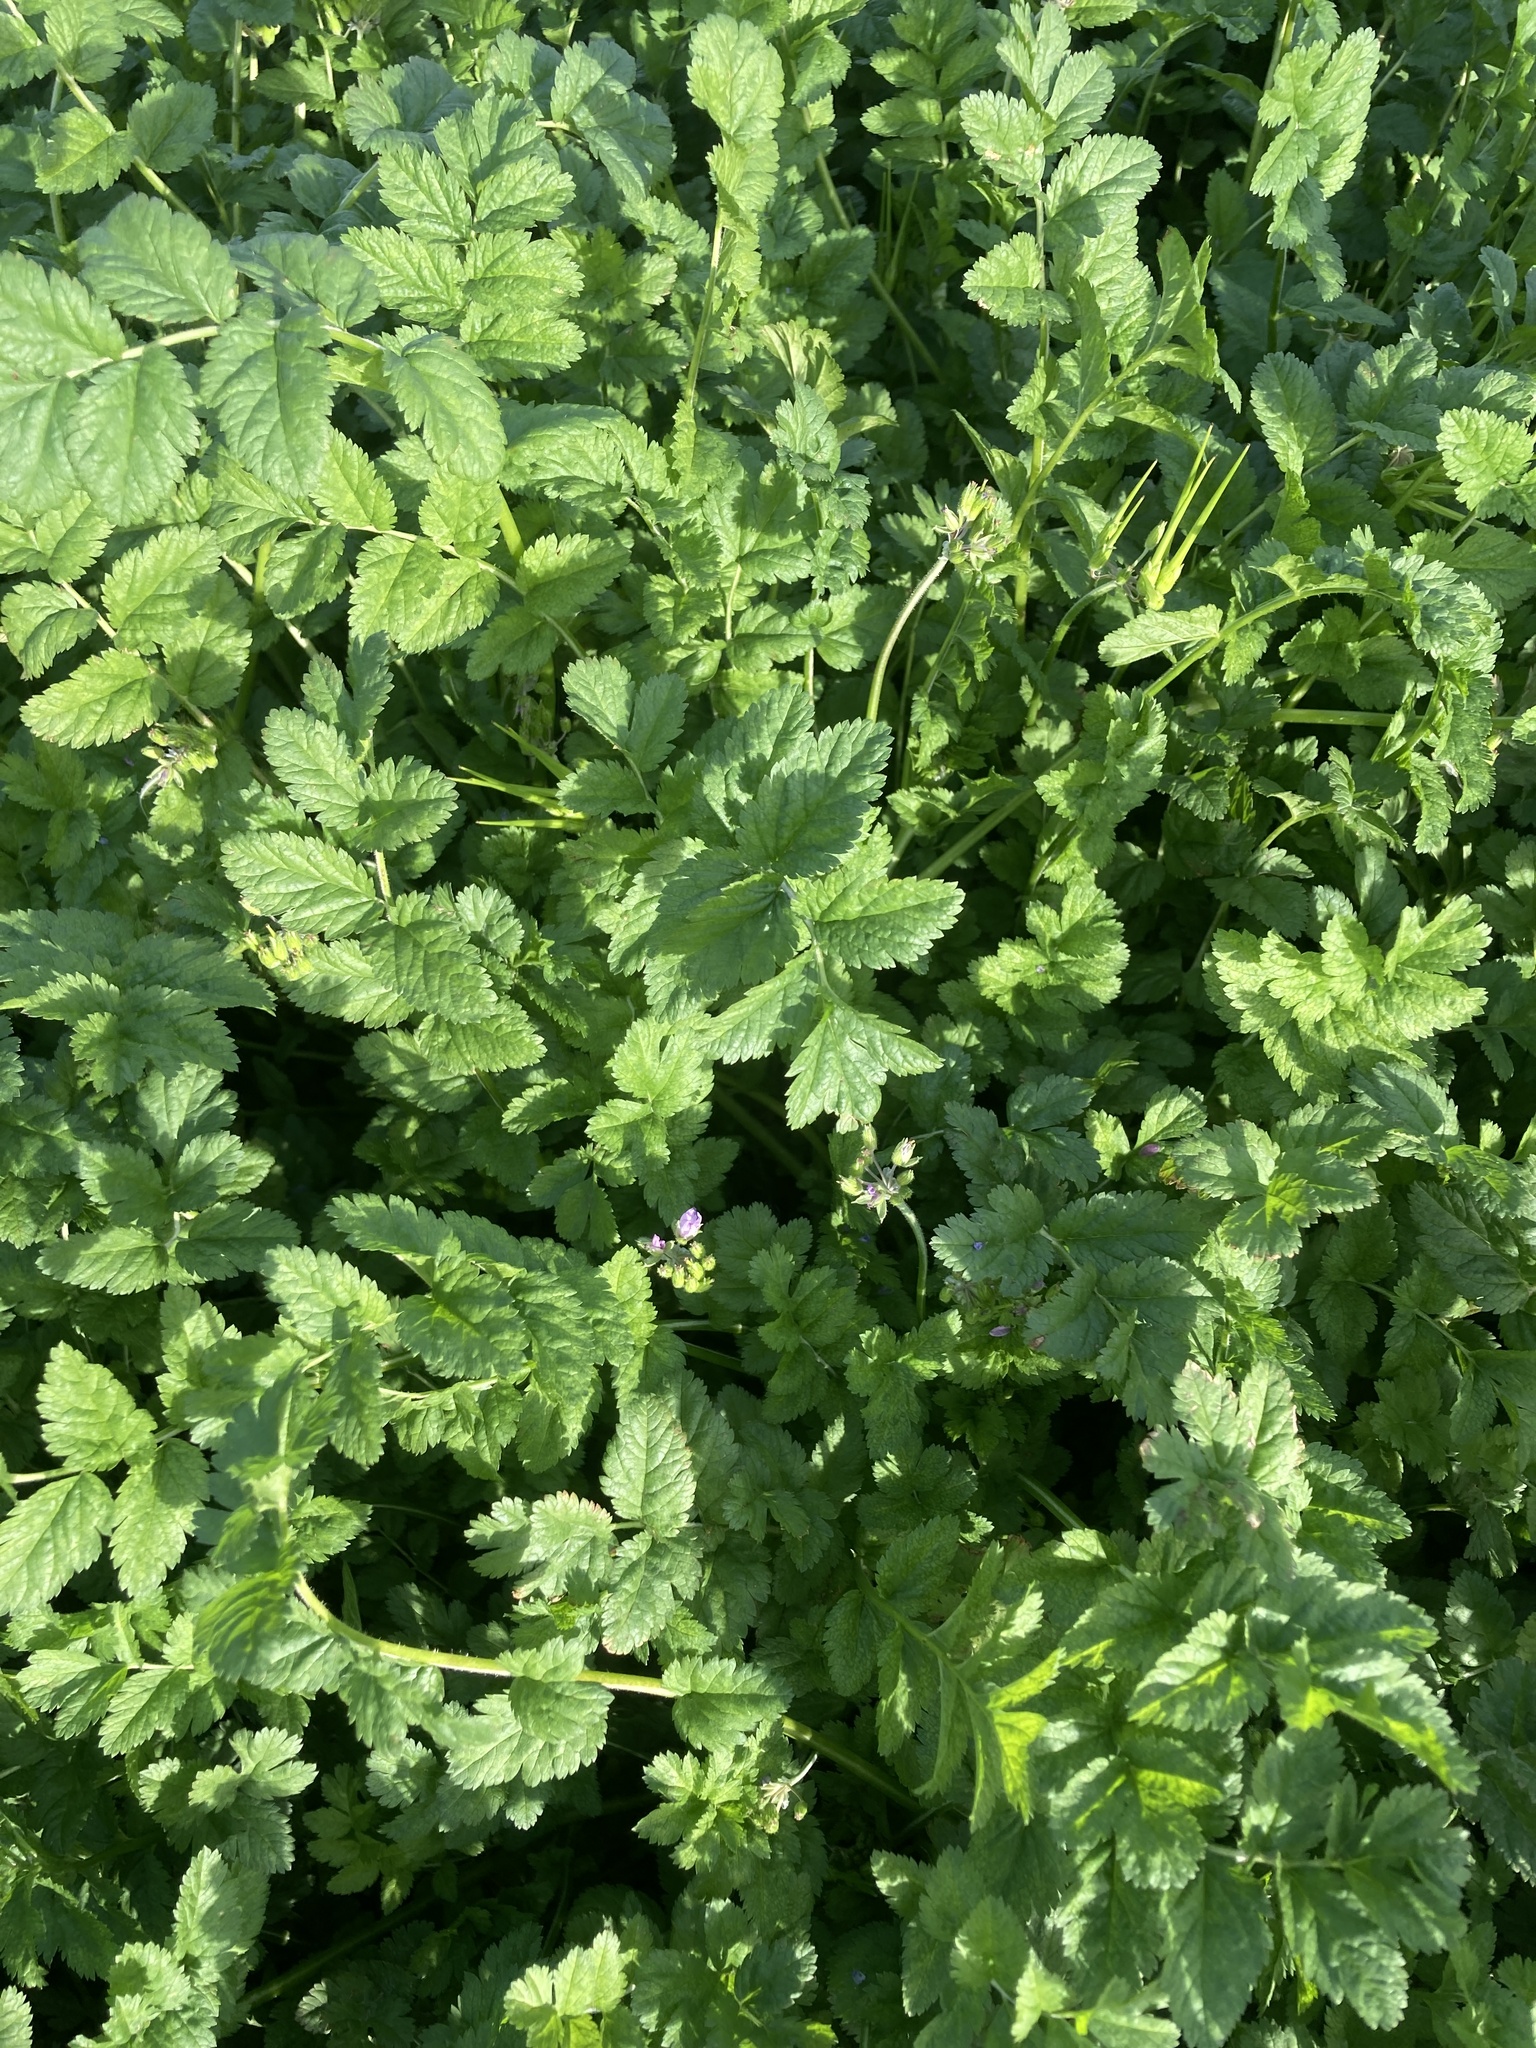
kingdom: Plantae
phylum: Tracheophyta
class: Magnoliopsida
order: Geraniales
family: Geraniaceae
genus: Erodium
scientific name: Erodium moschatum
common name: Musk stork's-bill
